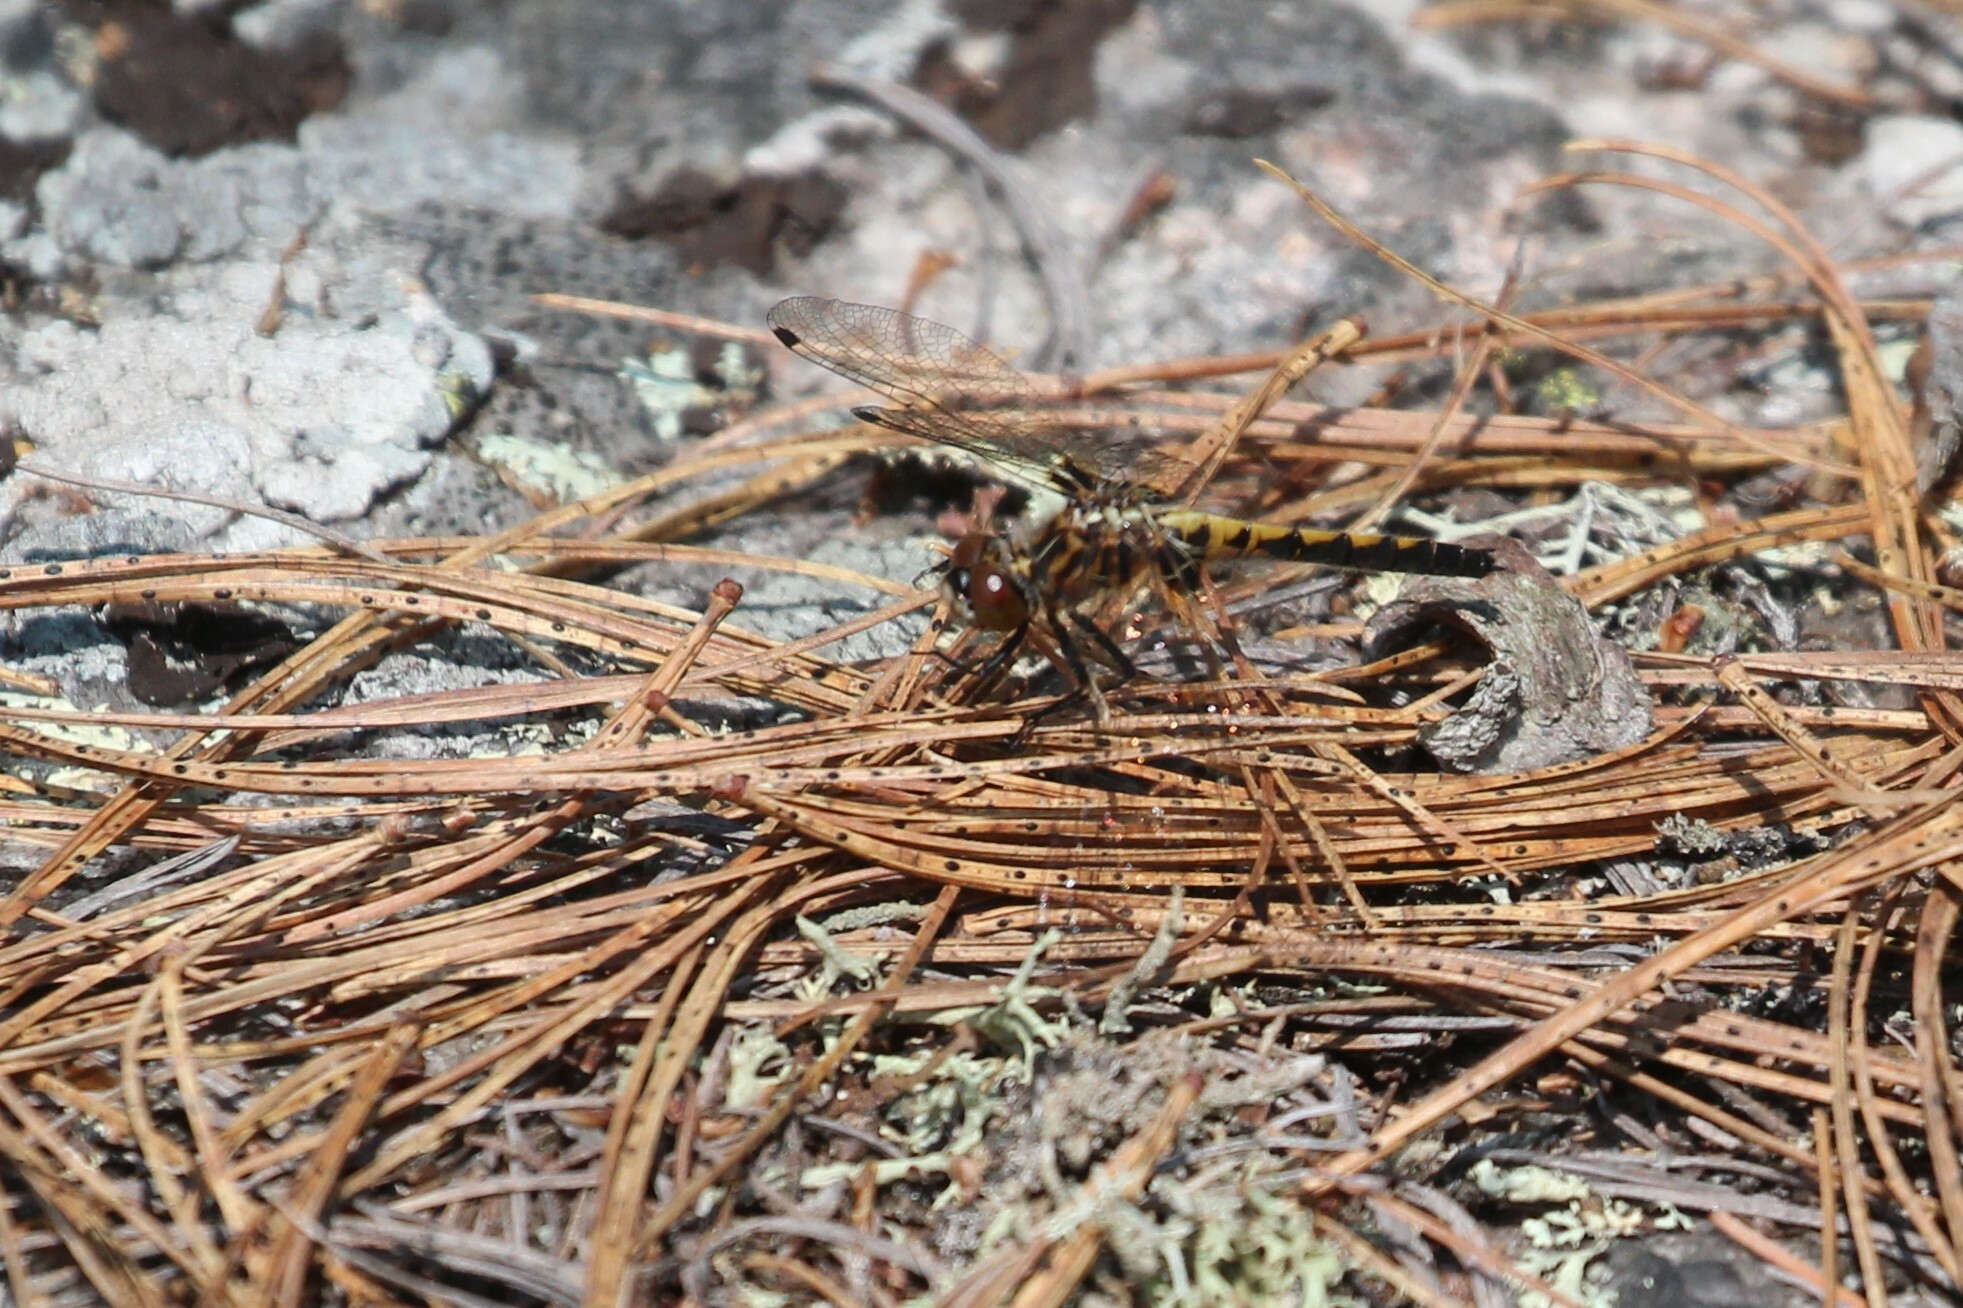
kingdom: Animalia
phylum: Arthropoda
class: Insecta
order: Odonata
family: Libellulidae
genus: Leucorrhinia
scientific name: Leucorrhinia hudsonica
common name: Hudsonian whiteface
